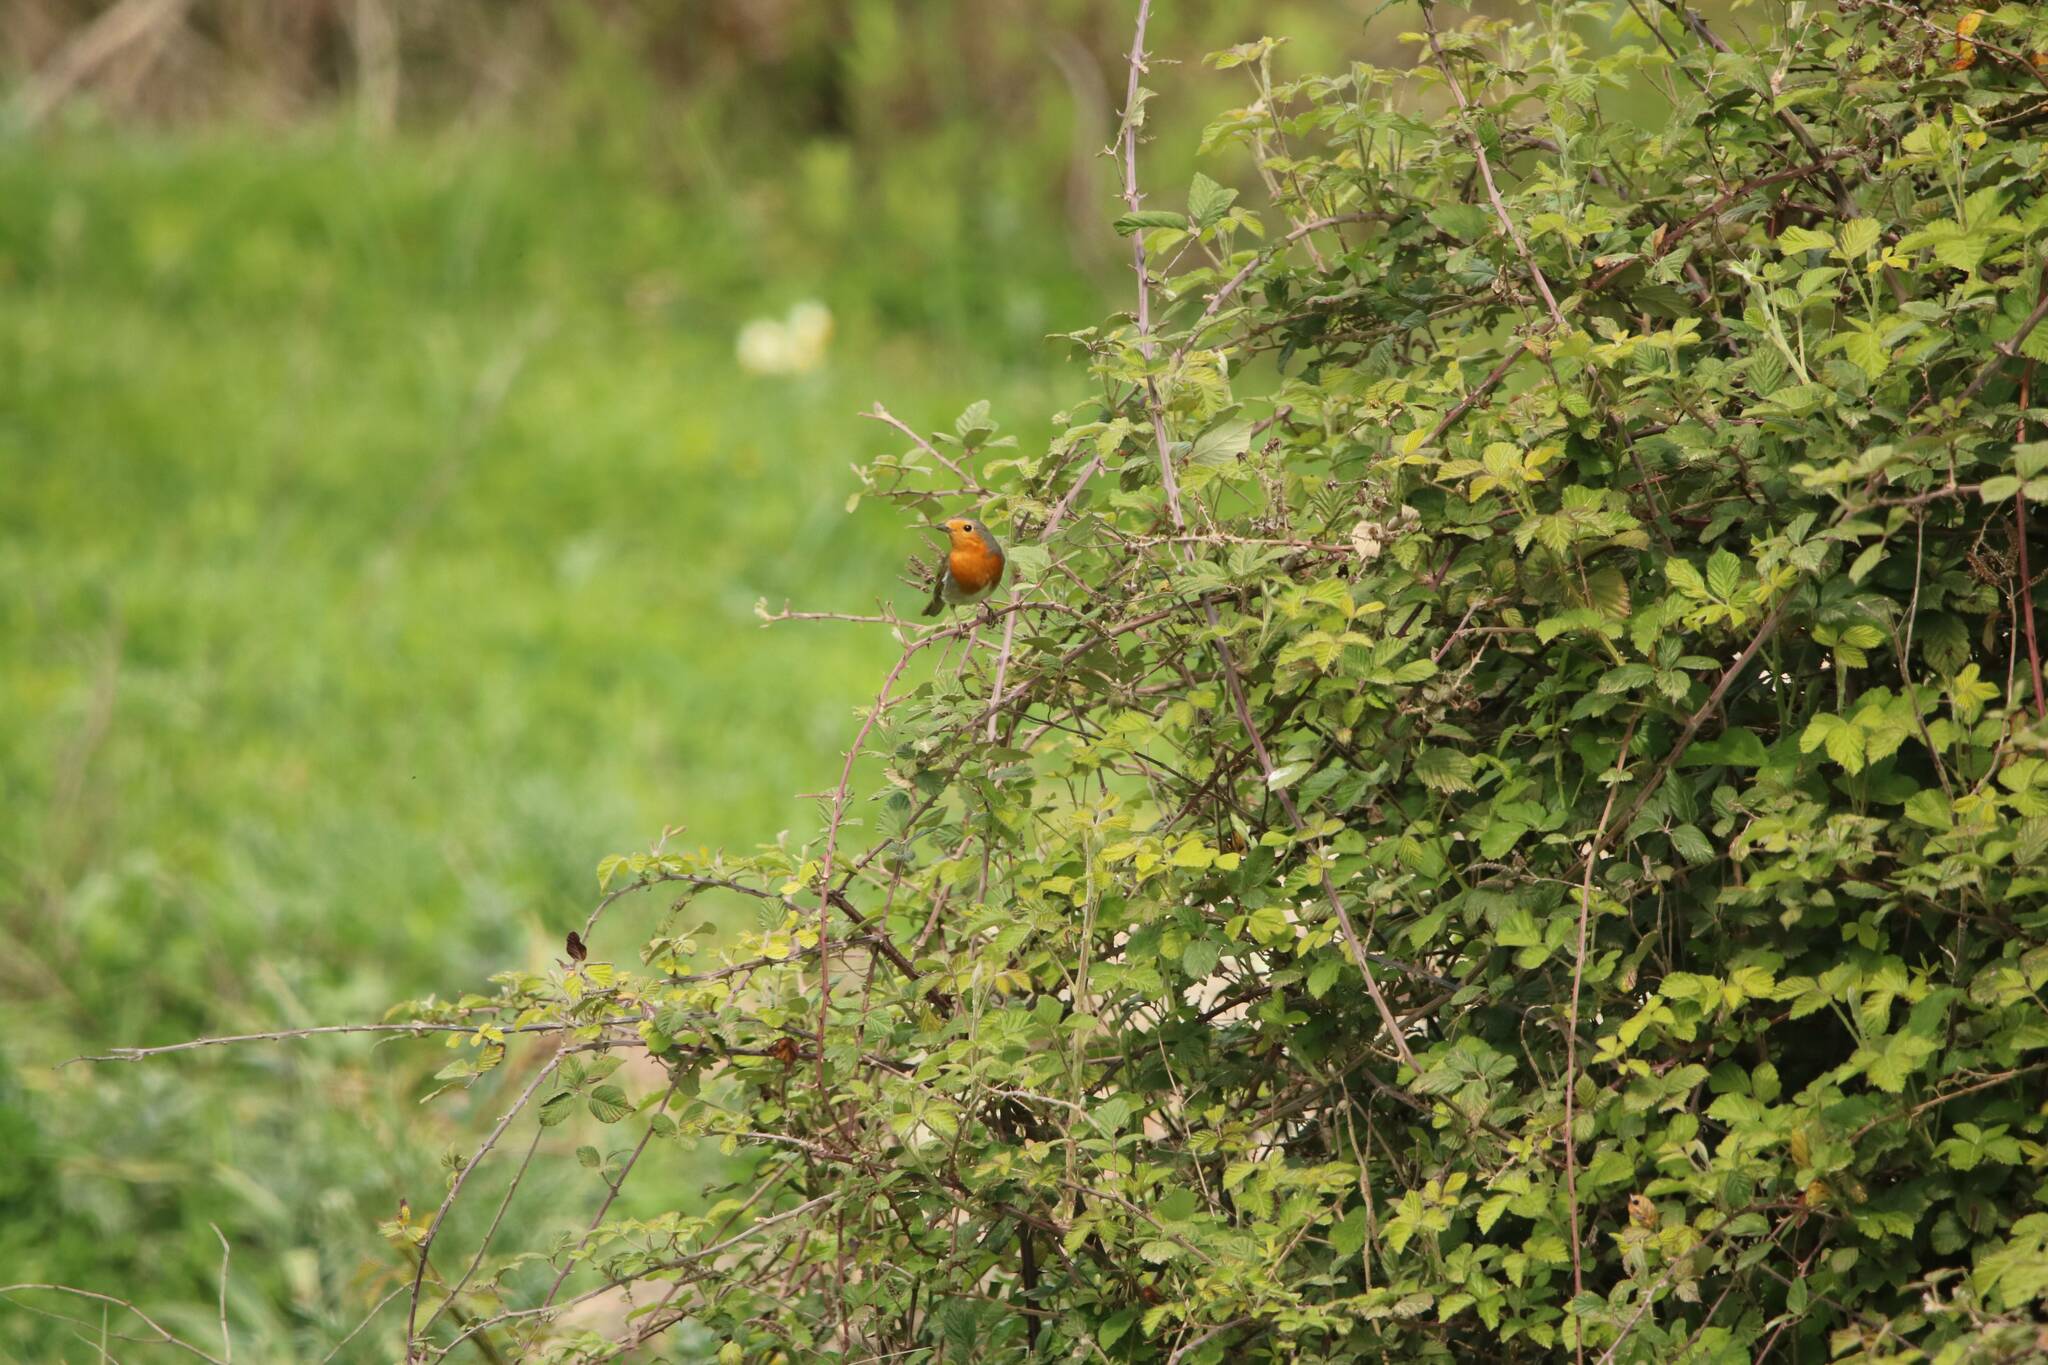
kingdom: Animalia
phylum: Chordata
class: Aves
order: Passeriformes
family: Muscicapidae
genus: Erithacus
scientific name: Erithacus rubecula
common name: European robin
